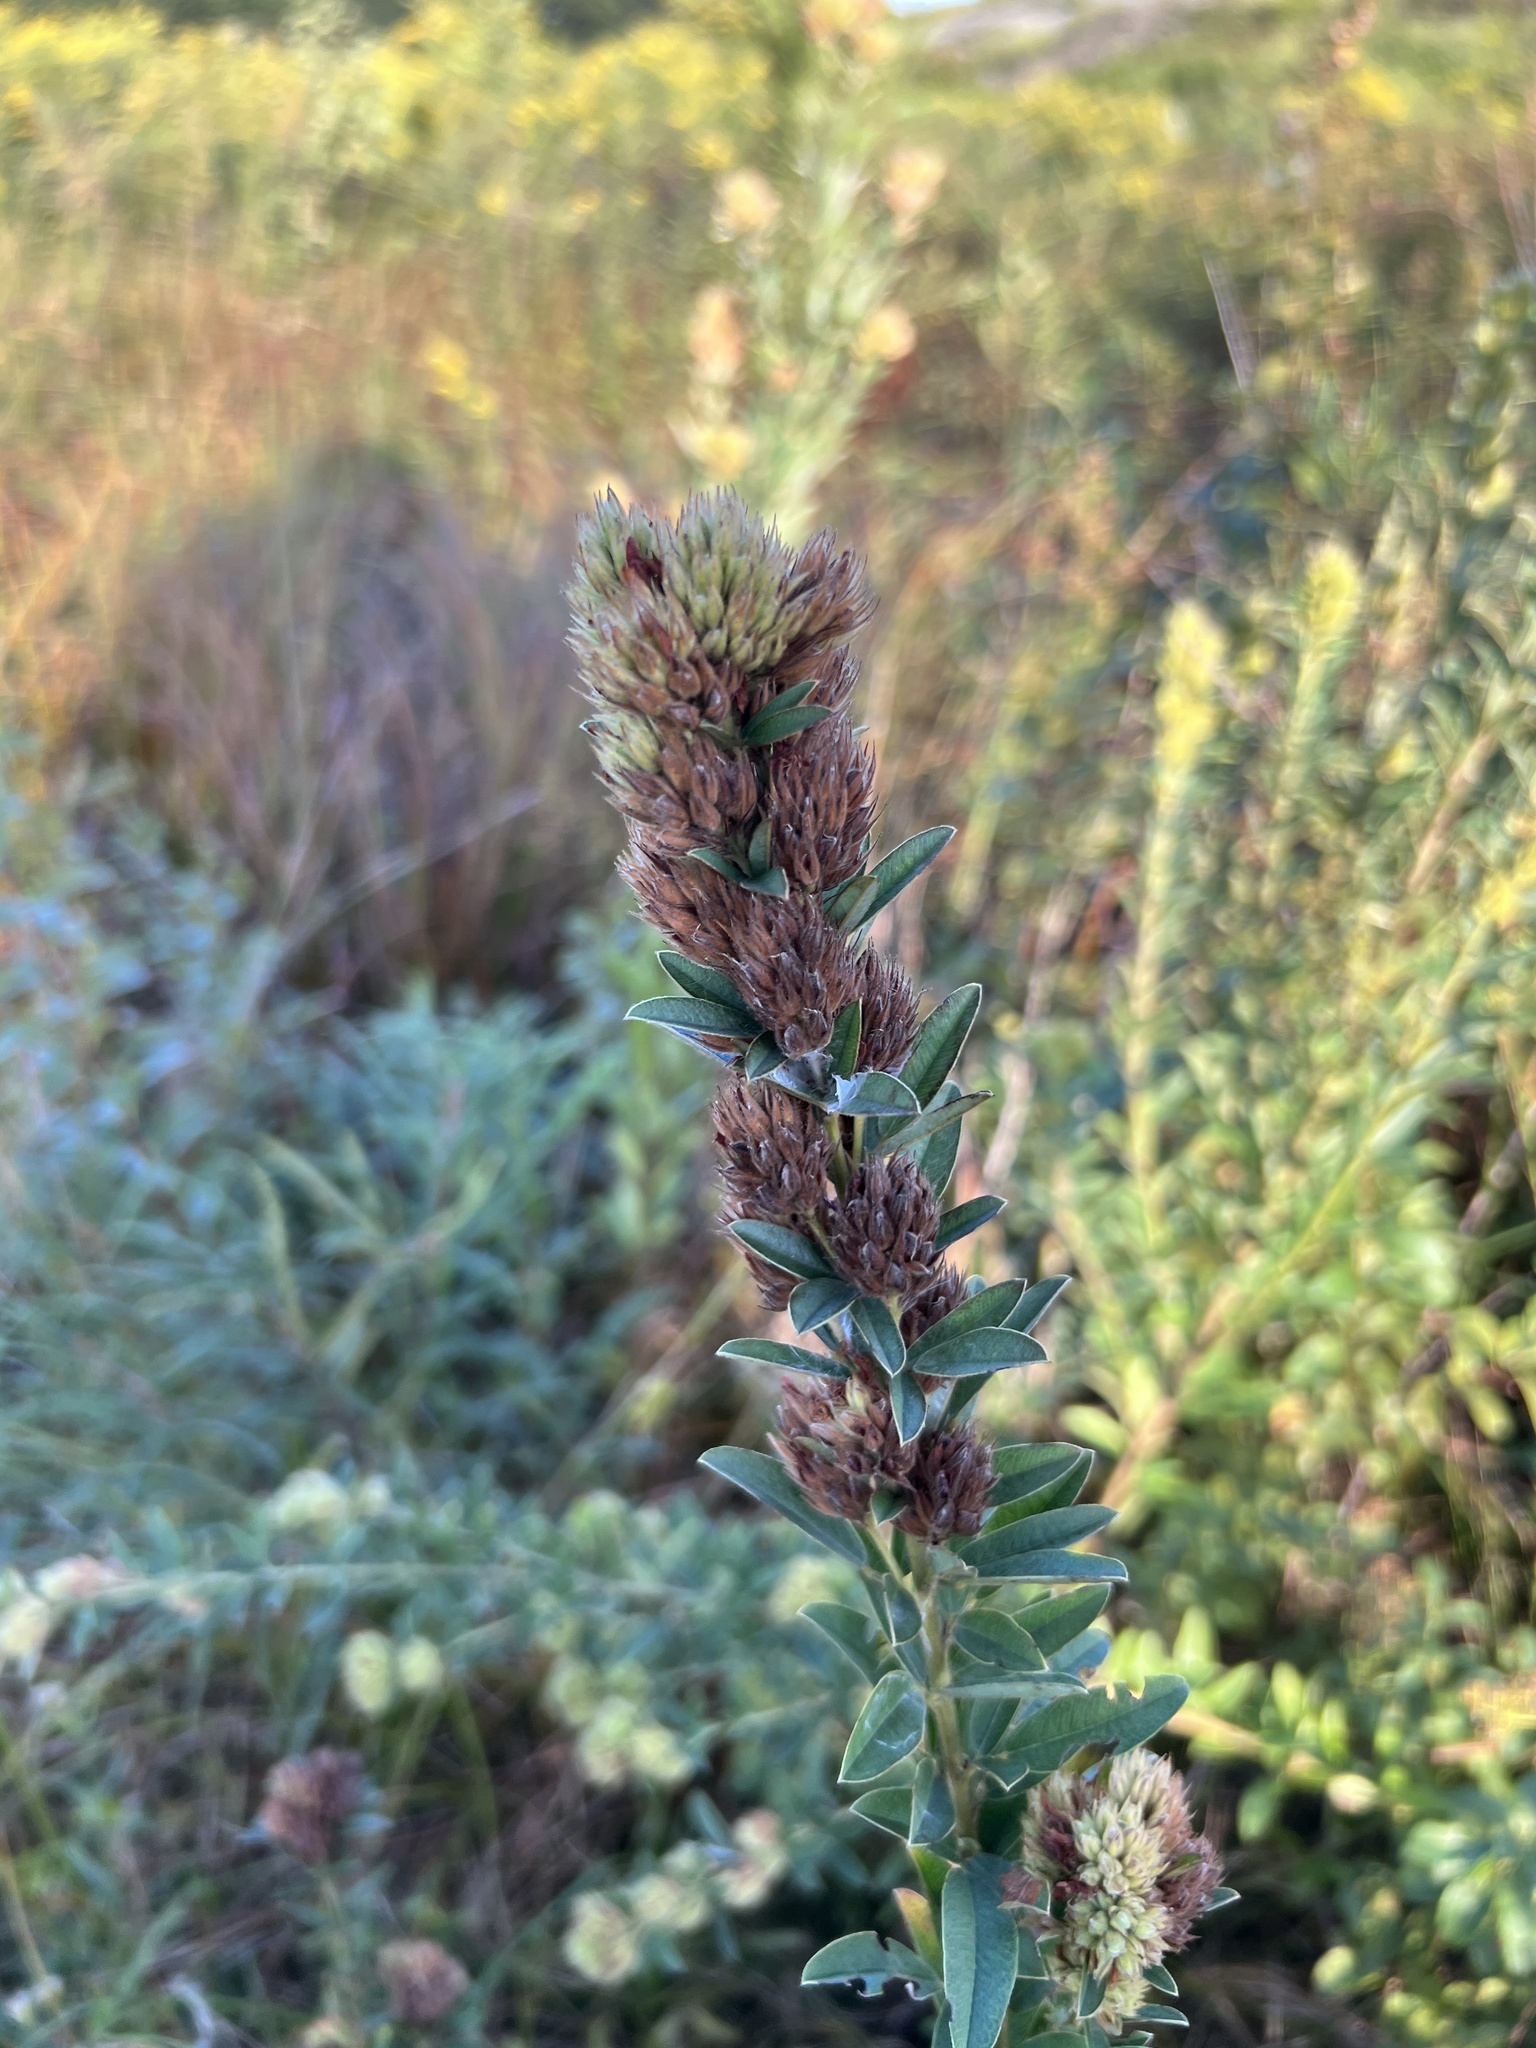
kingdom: Plantae
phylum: Tracheophyta
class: Magnoliopsida
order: Fabales
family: Fabaceae
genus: Lespedeza
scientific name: Lespedeza capitata
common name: Dusty clover
